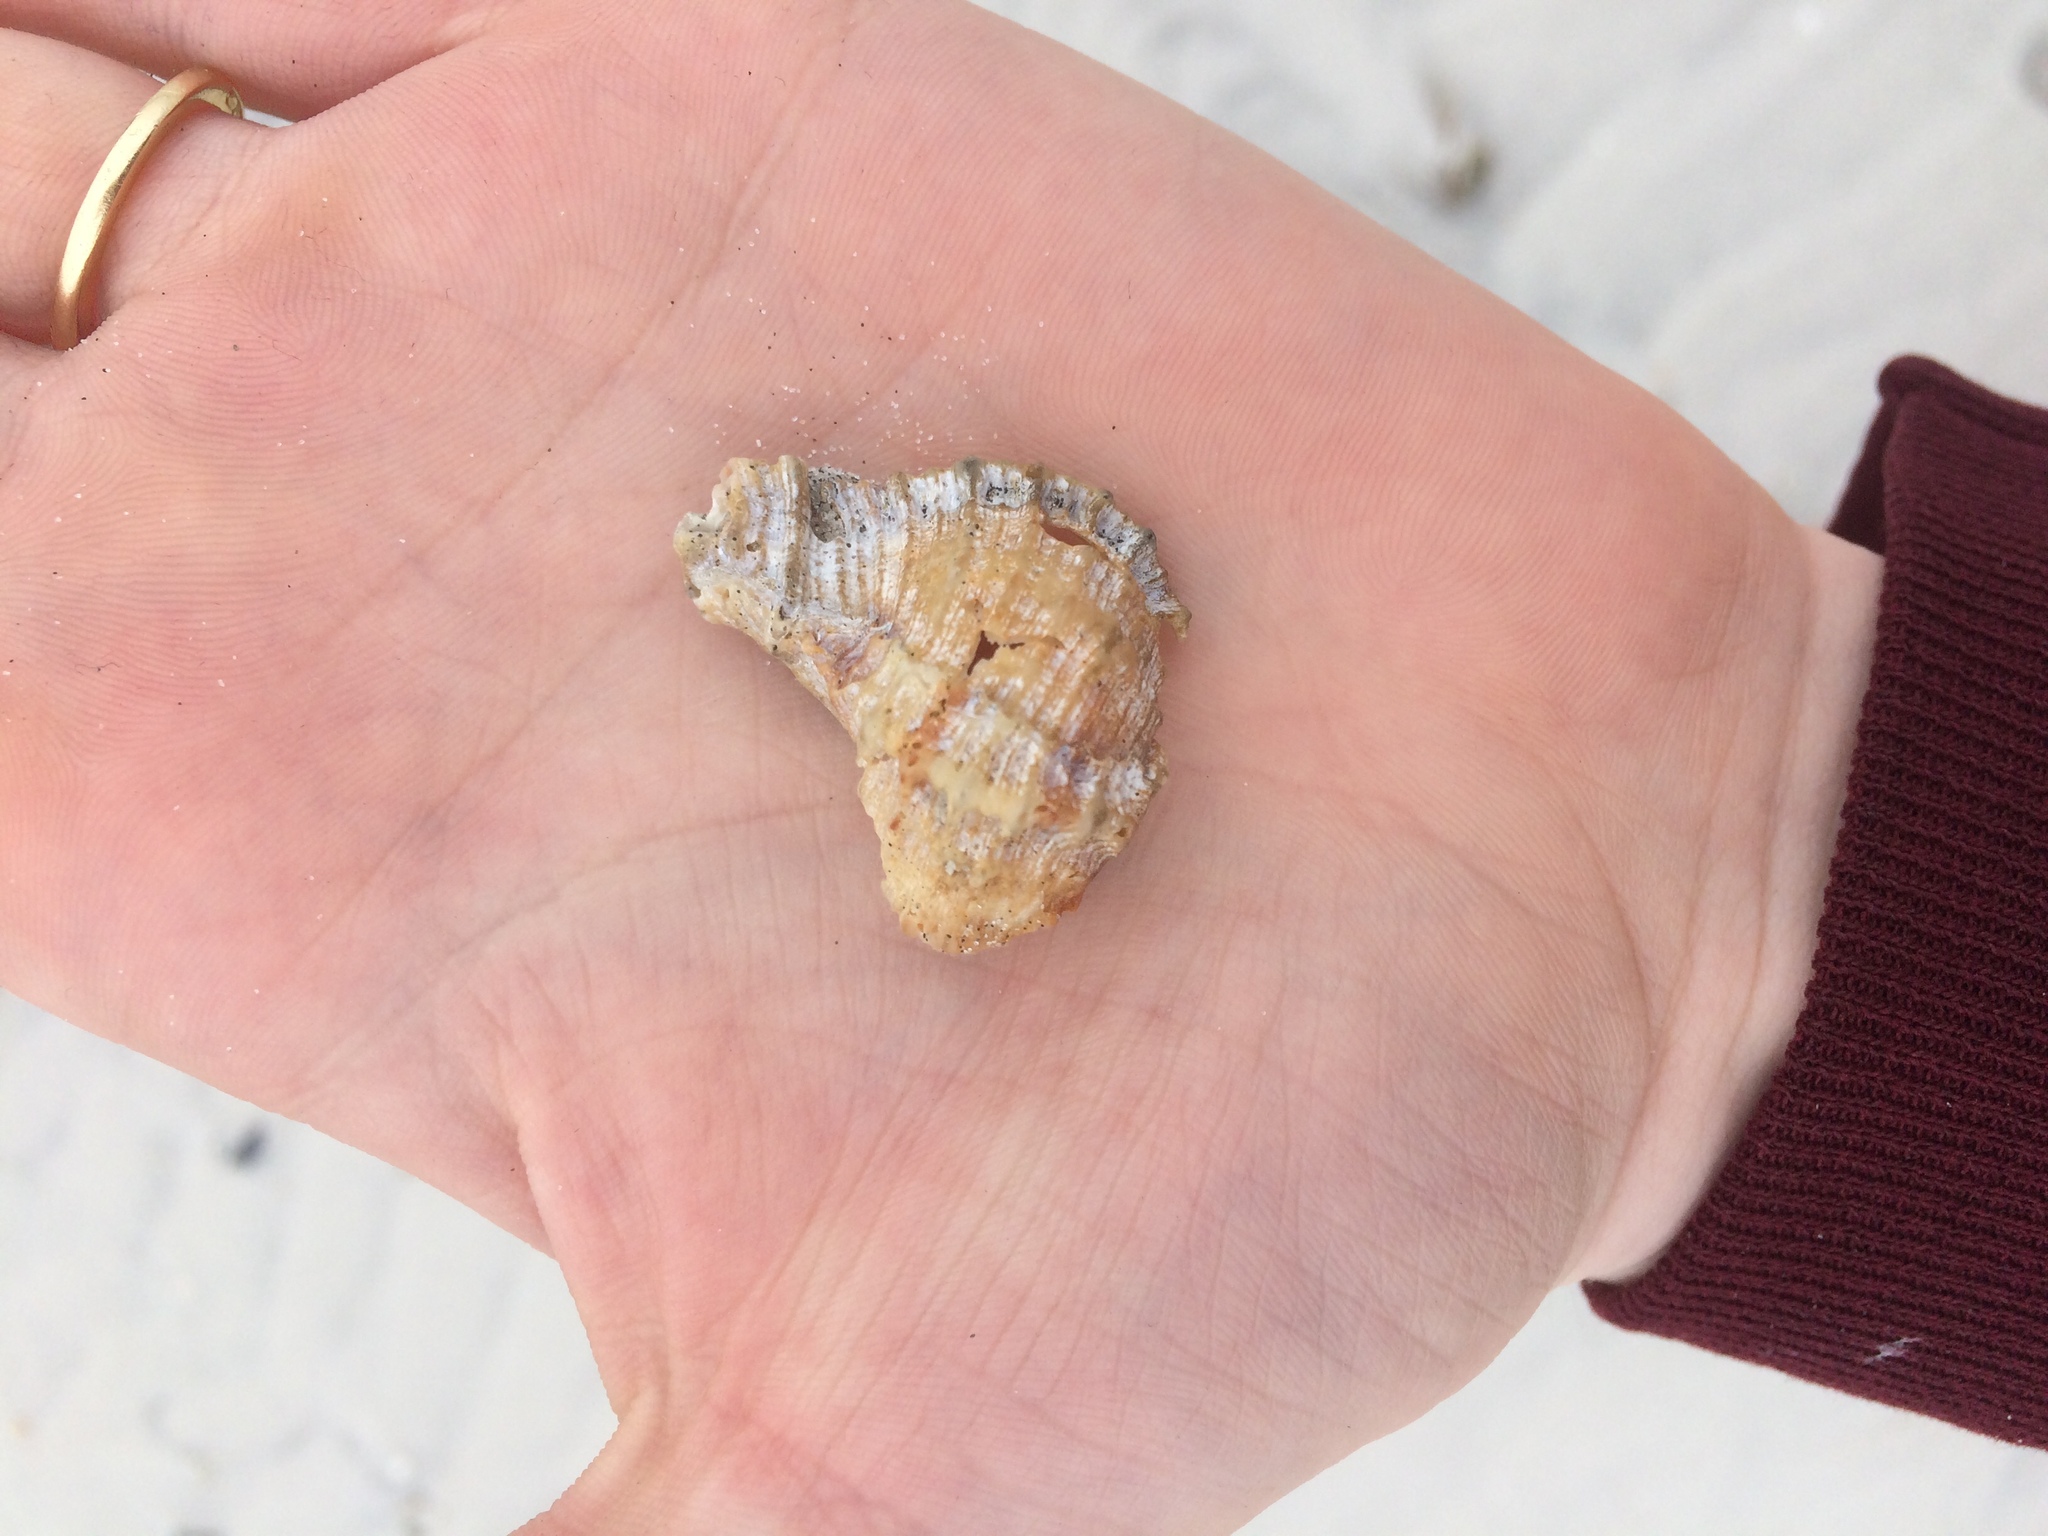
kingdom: Animalia
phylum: Mollusca
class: Gastropoda
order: Neogastropoda
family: Muricidae
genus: Phyllonotus
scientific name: Phyllonotus pomum
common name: Apple murex
